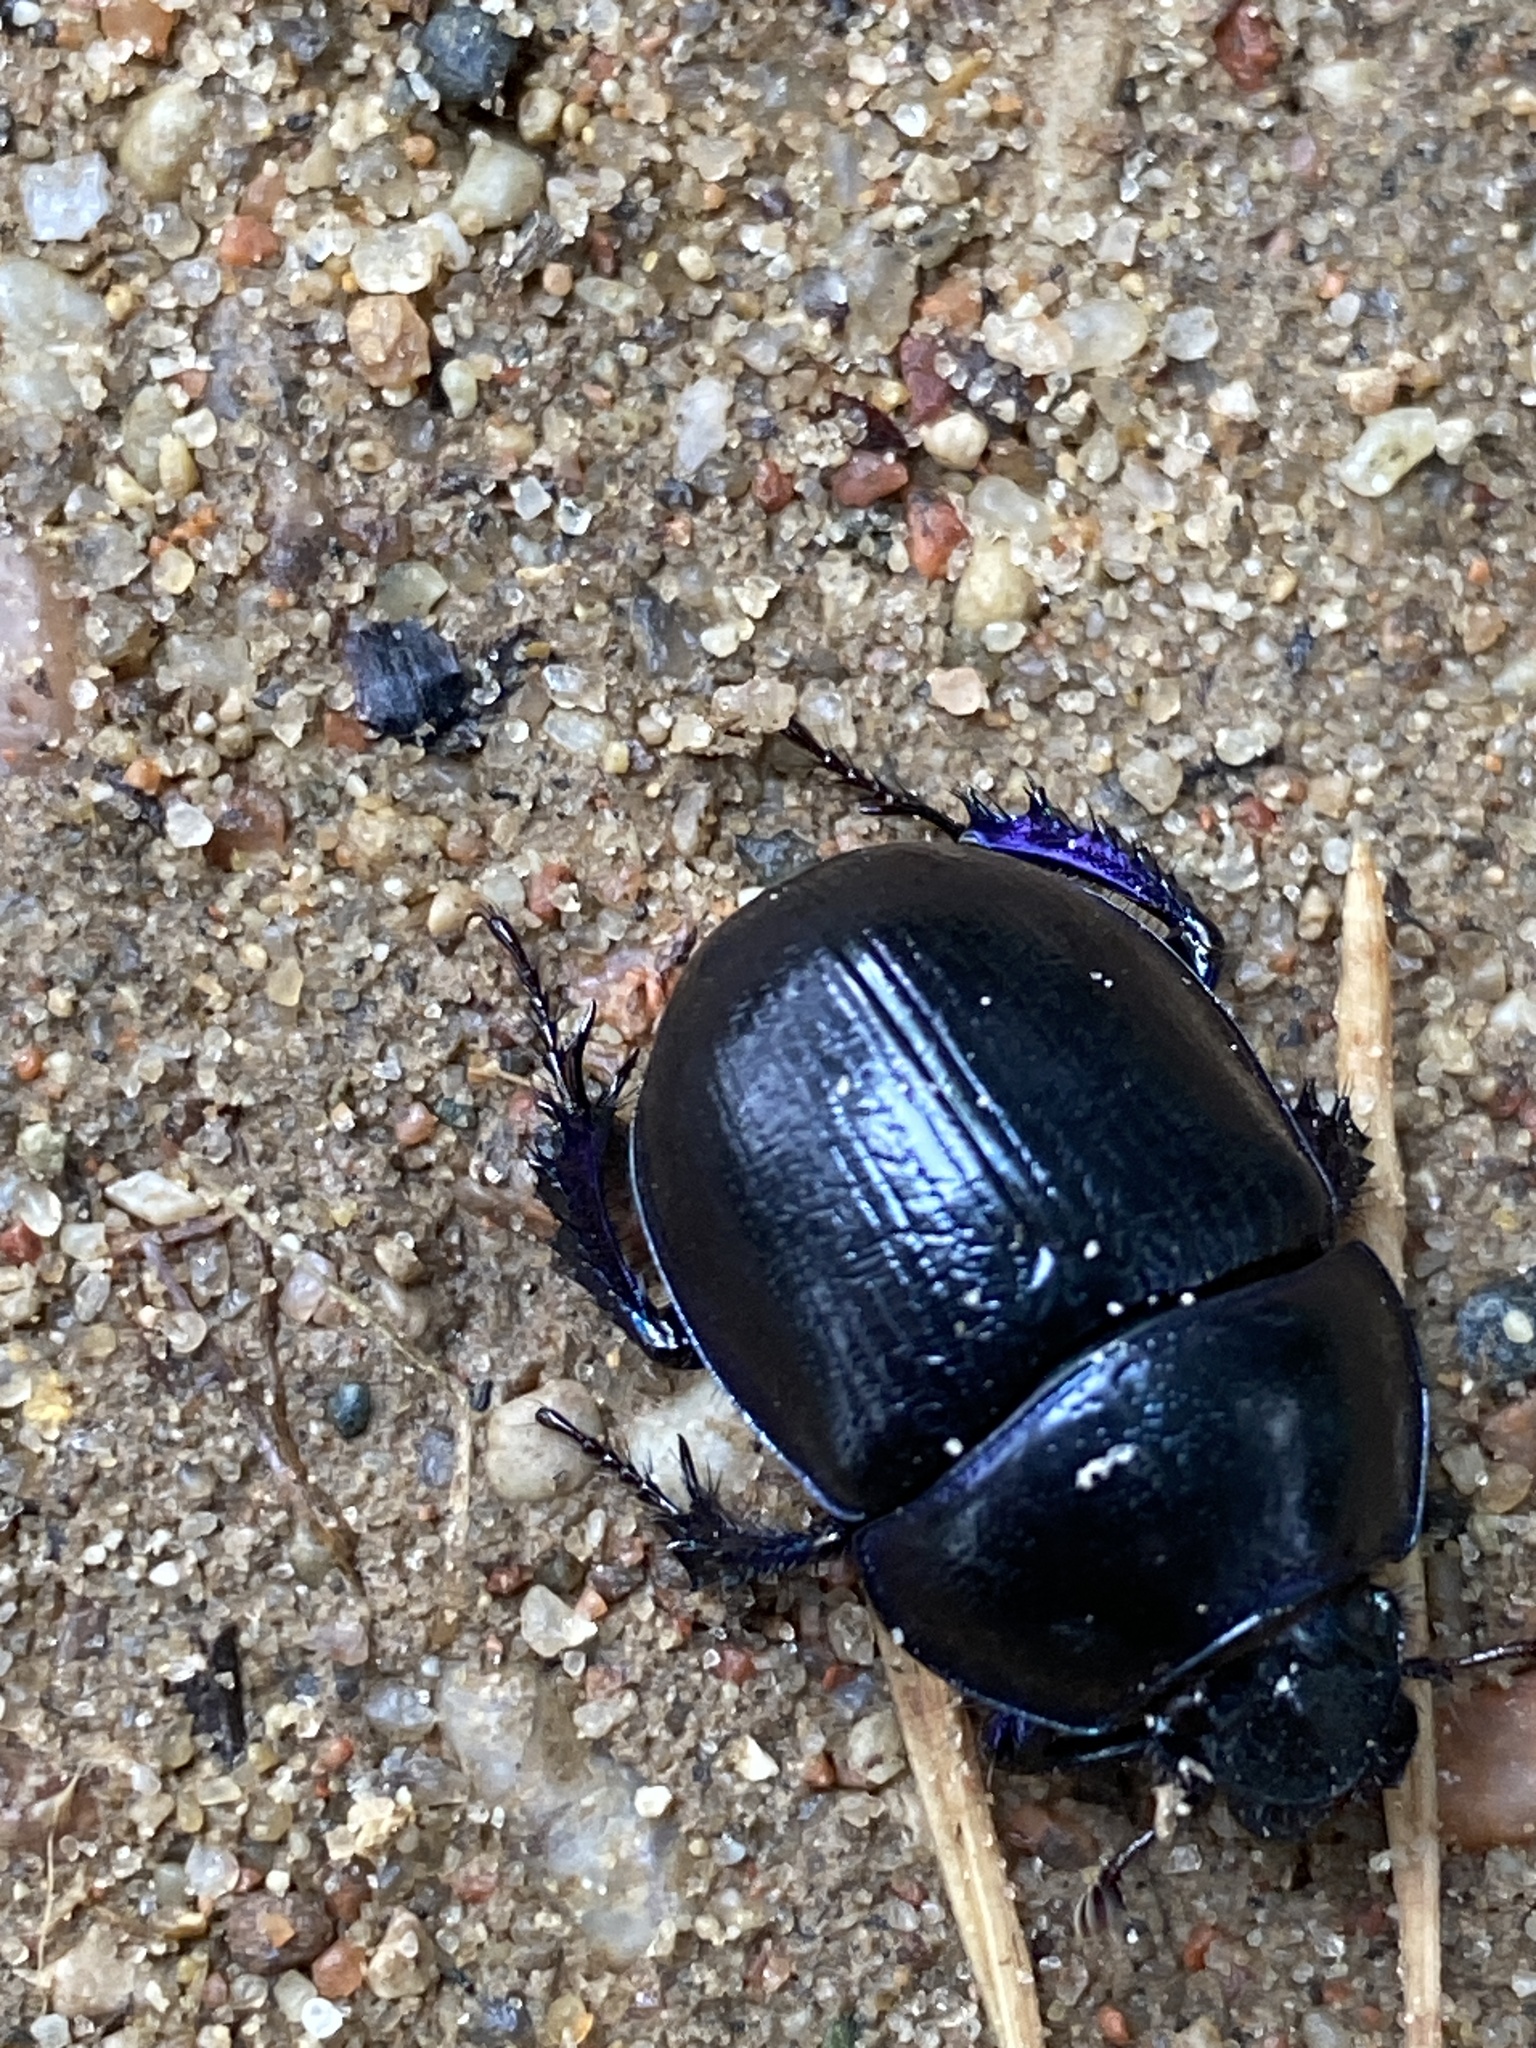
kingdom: Animalia
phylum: Arthropoda
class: Insecta
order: Coleoptera
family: Geotrupidae
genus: Anoplotrupes
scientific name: Anoplotrupes stercorosus
